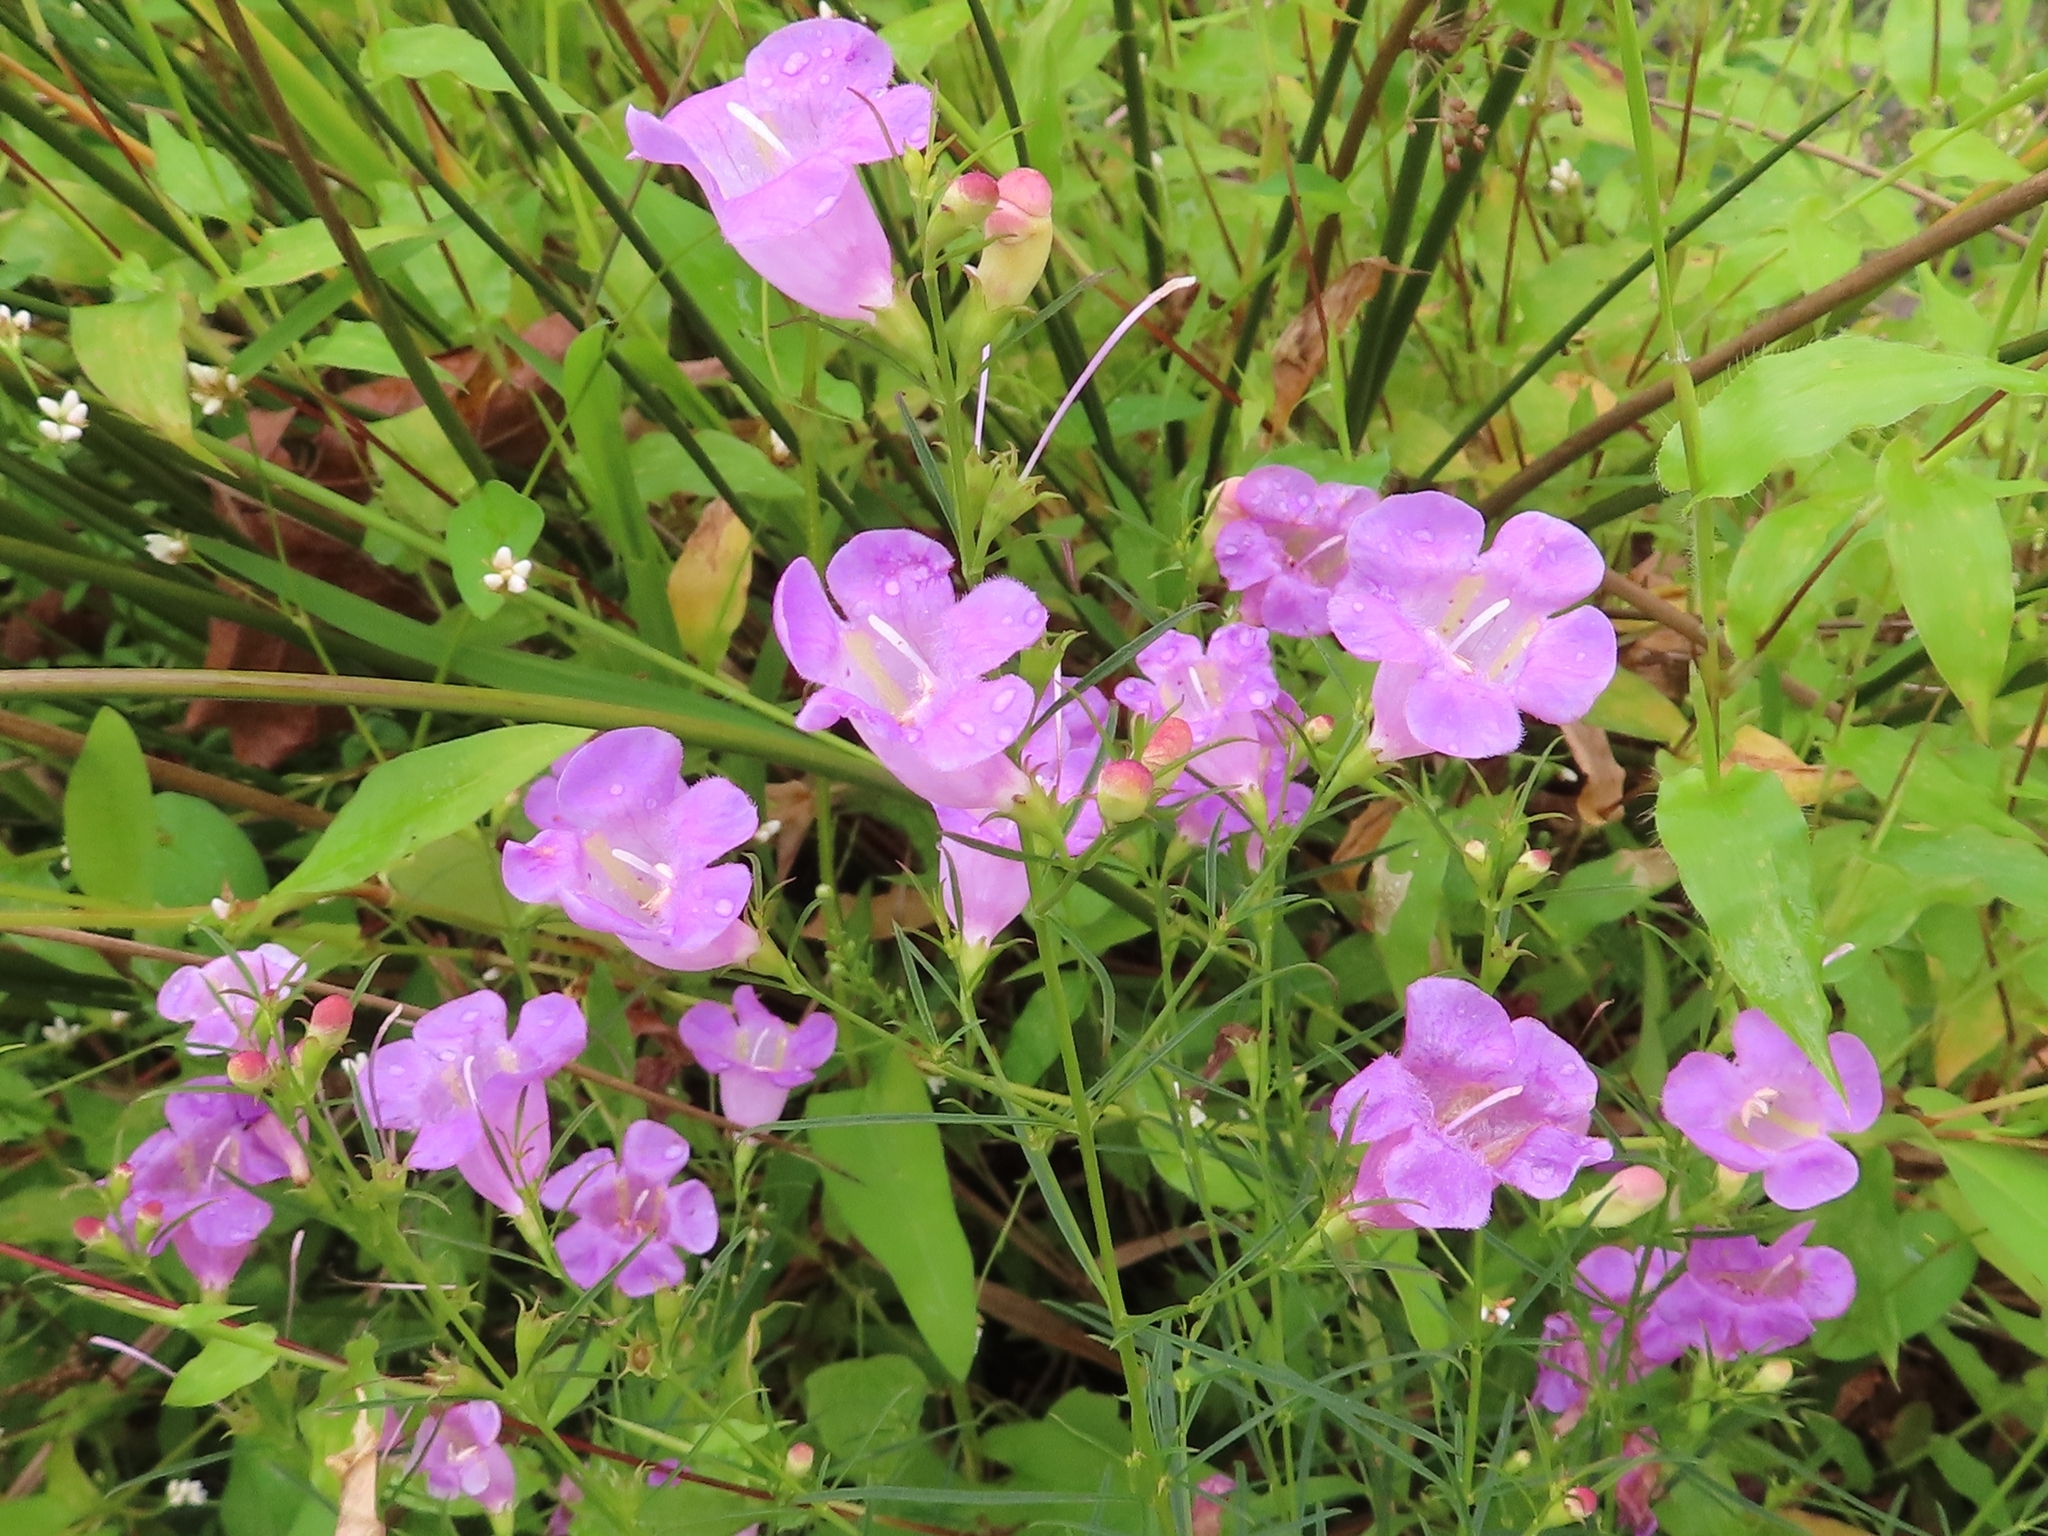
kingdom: Plantae
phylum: Tracheophyta
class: Magnoliopsida
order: Lamiales
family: Orobanchaceae
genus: Agalinis
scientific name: Agalinis purpurea
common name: Purple false foxglove
